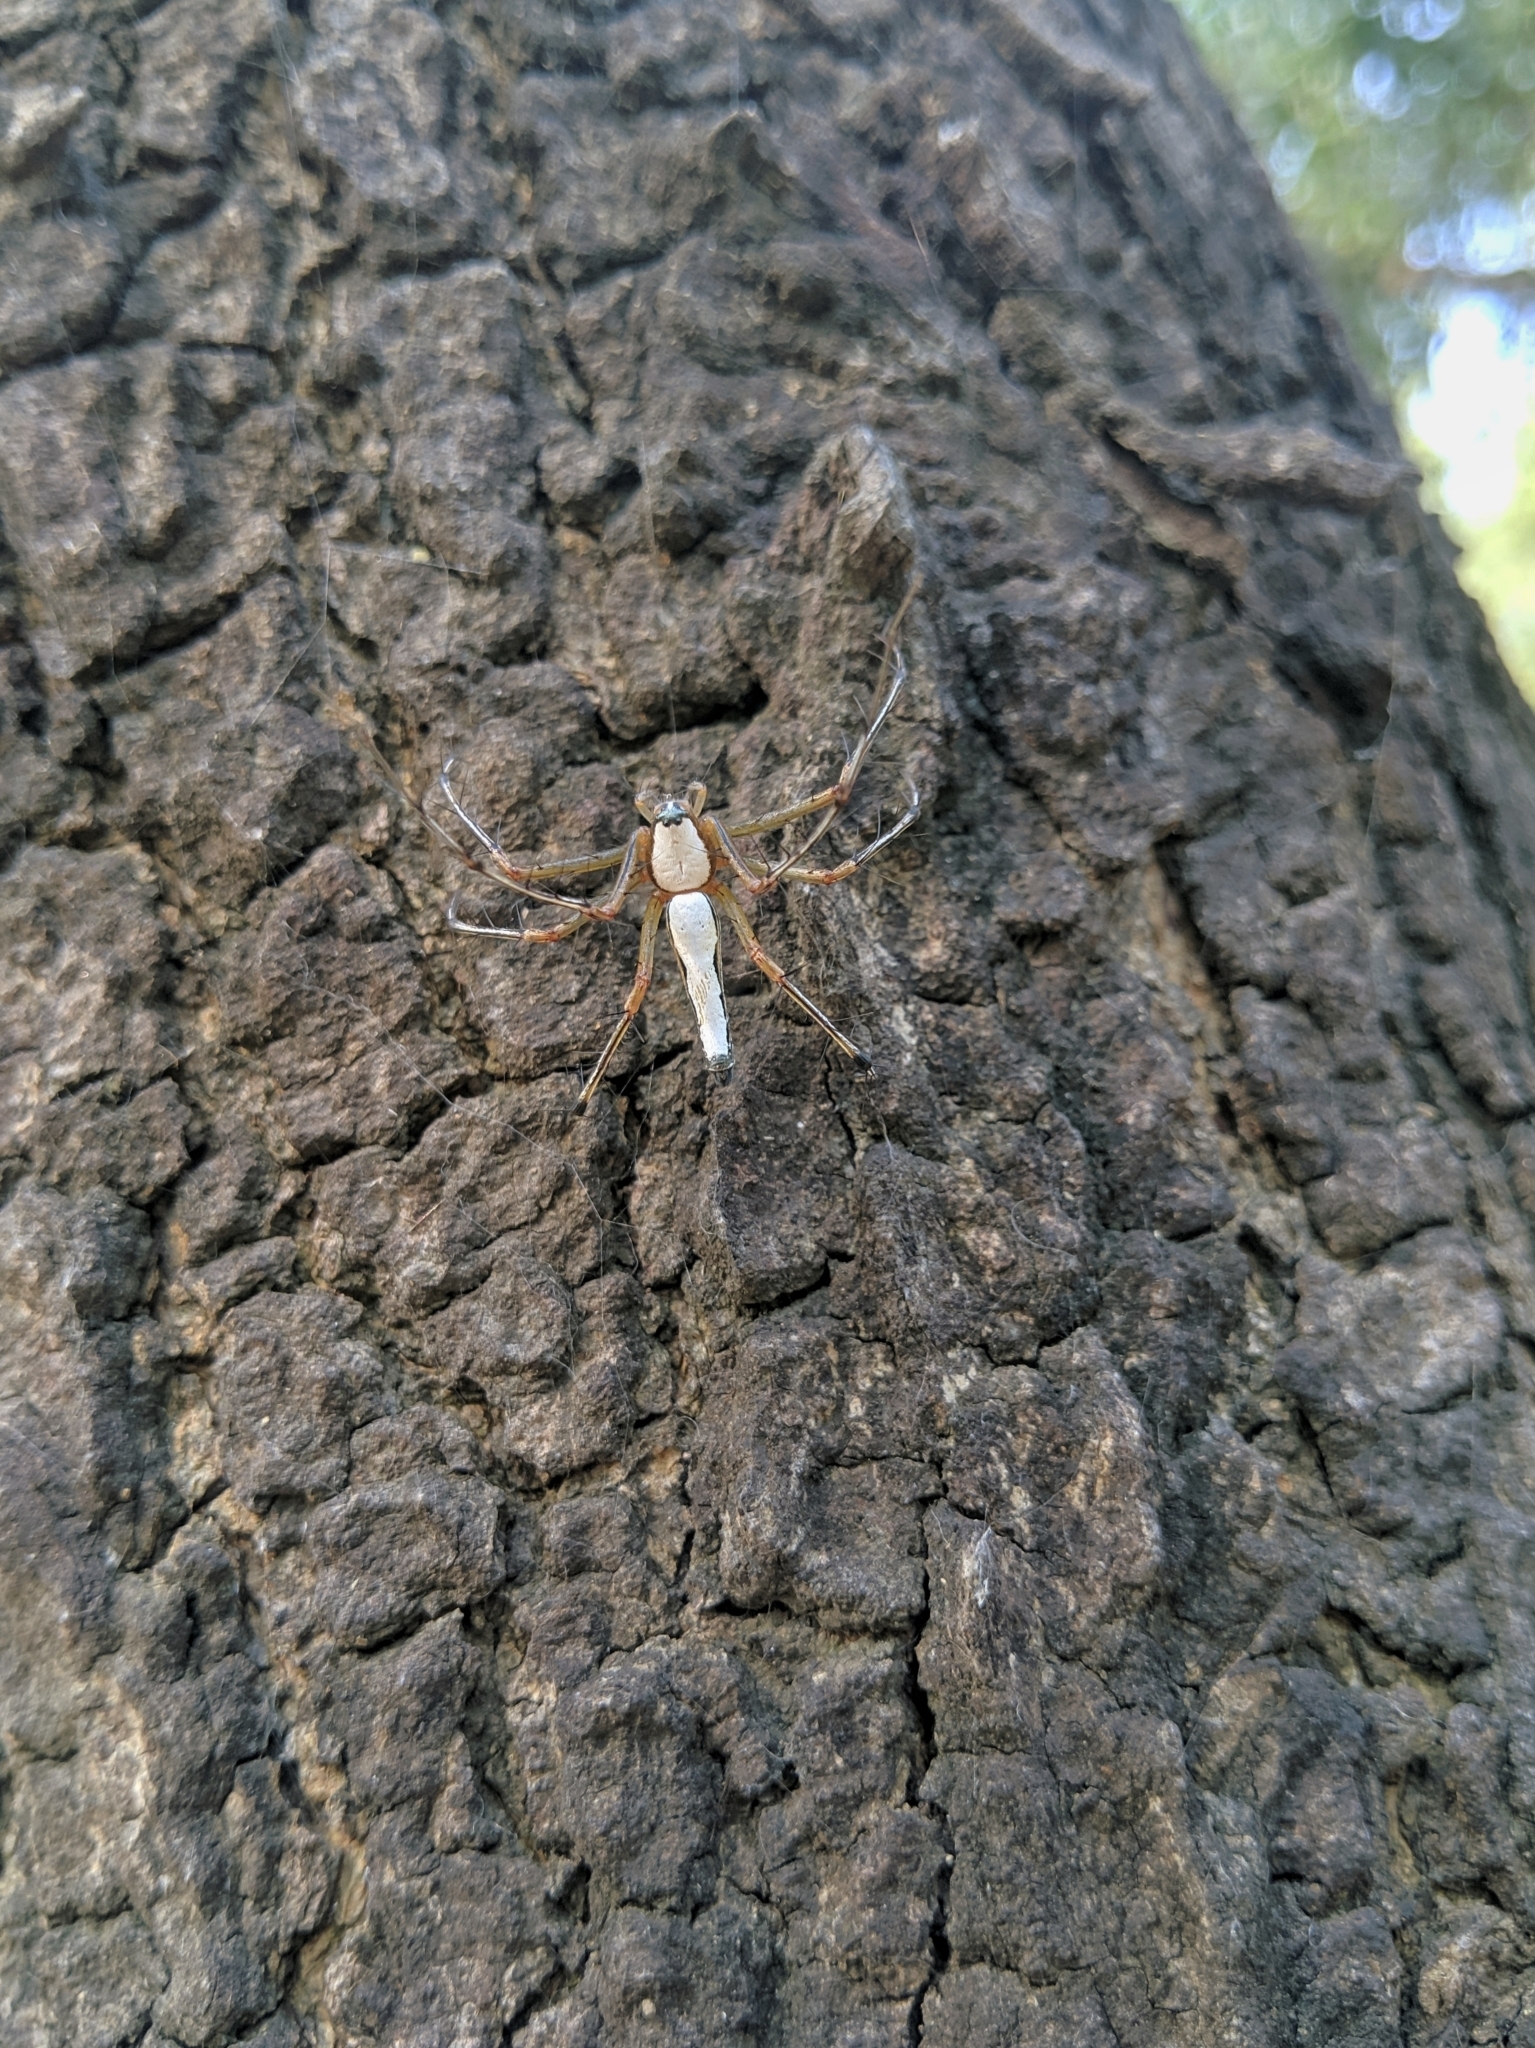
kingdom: Animalia
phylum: Arthropoda
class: Arachnida
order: Araneae
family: Oxyopidae
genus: Oxyopes
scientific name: Oxyopes shweta
